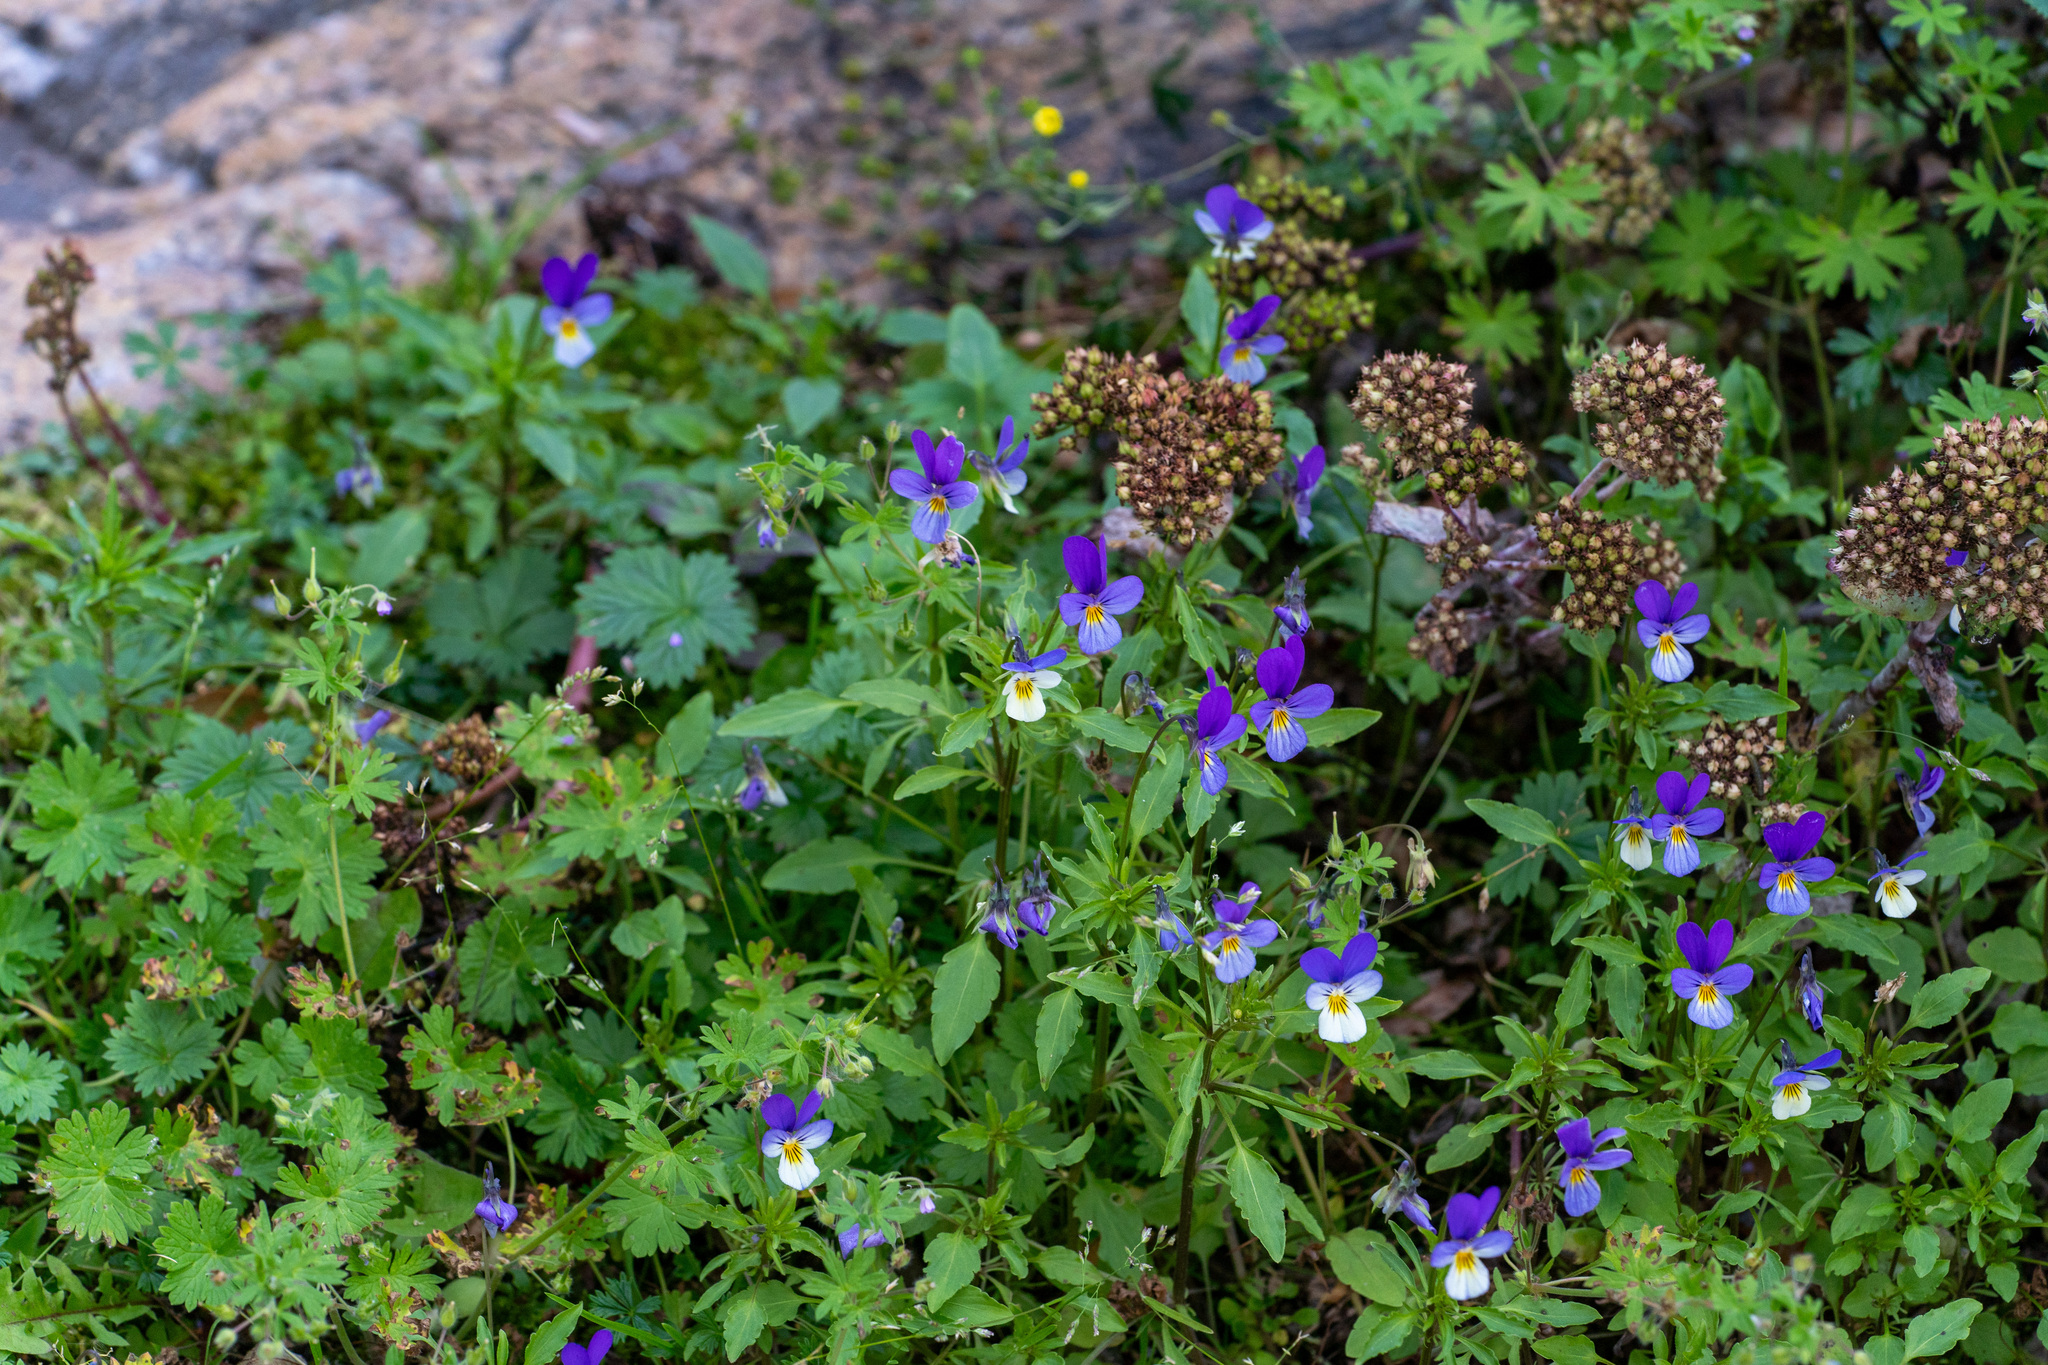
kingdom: Plantae
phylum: Tracheophyta
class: Magnoliopsida
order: Malpighiales
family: Violaceae
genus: Viola
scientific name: Viola tricolor
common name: Pansy
